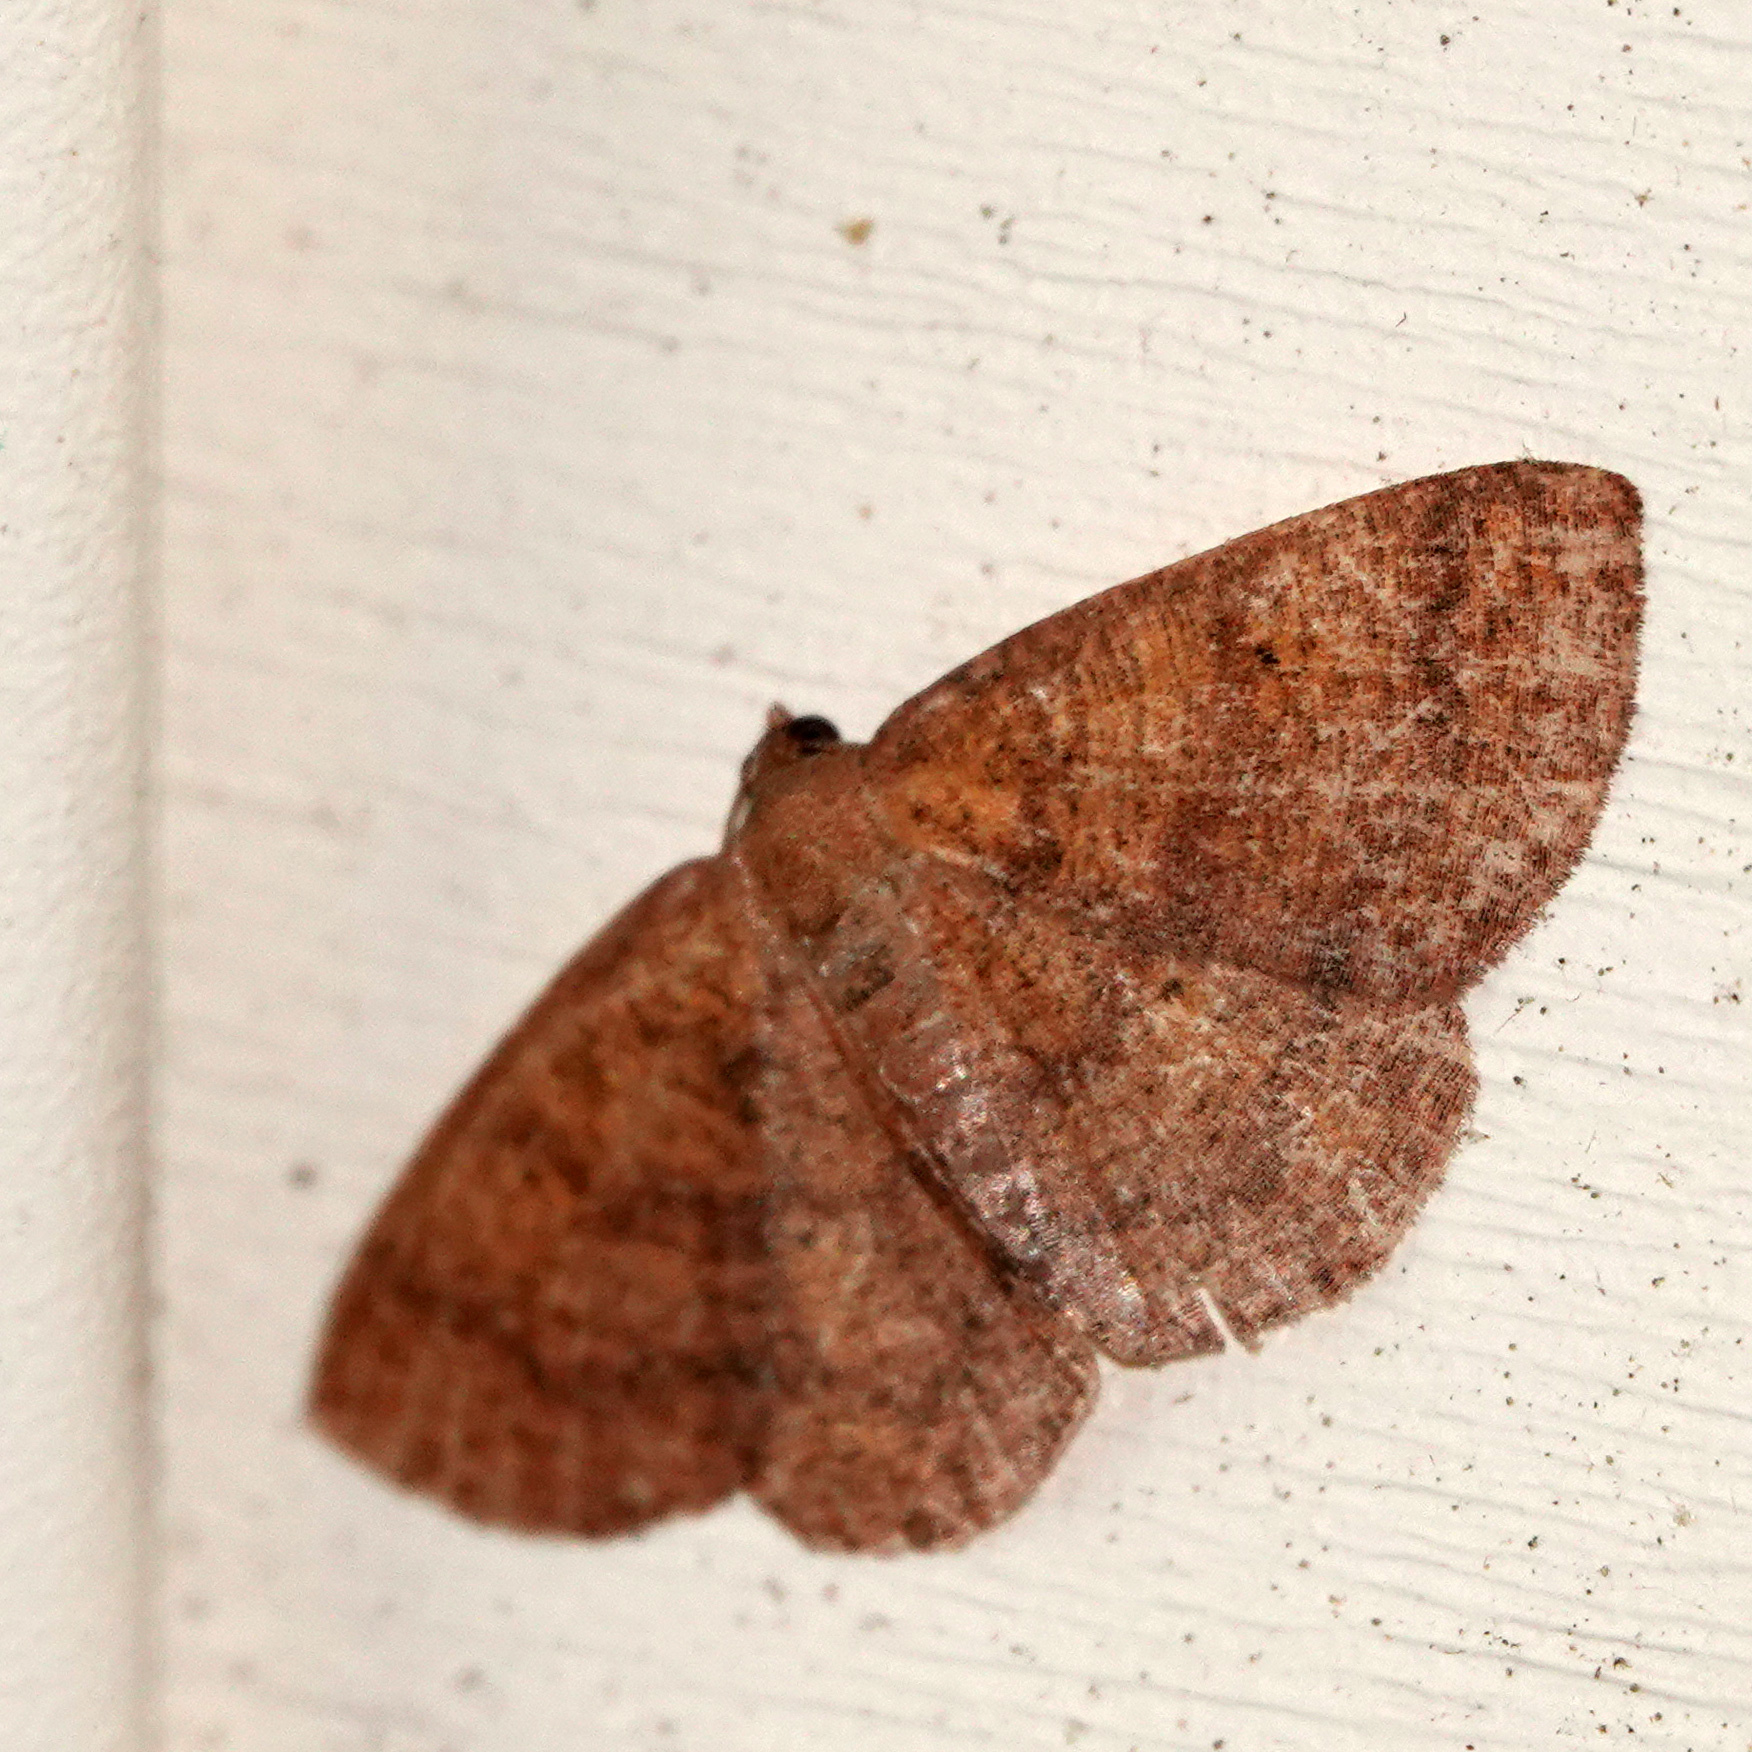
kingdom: Animalia
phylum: Arthropoda
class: Insecta
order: Lepidoptera
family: Geometridae
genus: Ilexia
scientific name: Ilexia intractata
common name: Black-dotted ruddy moth
